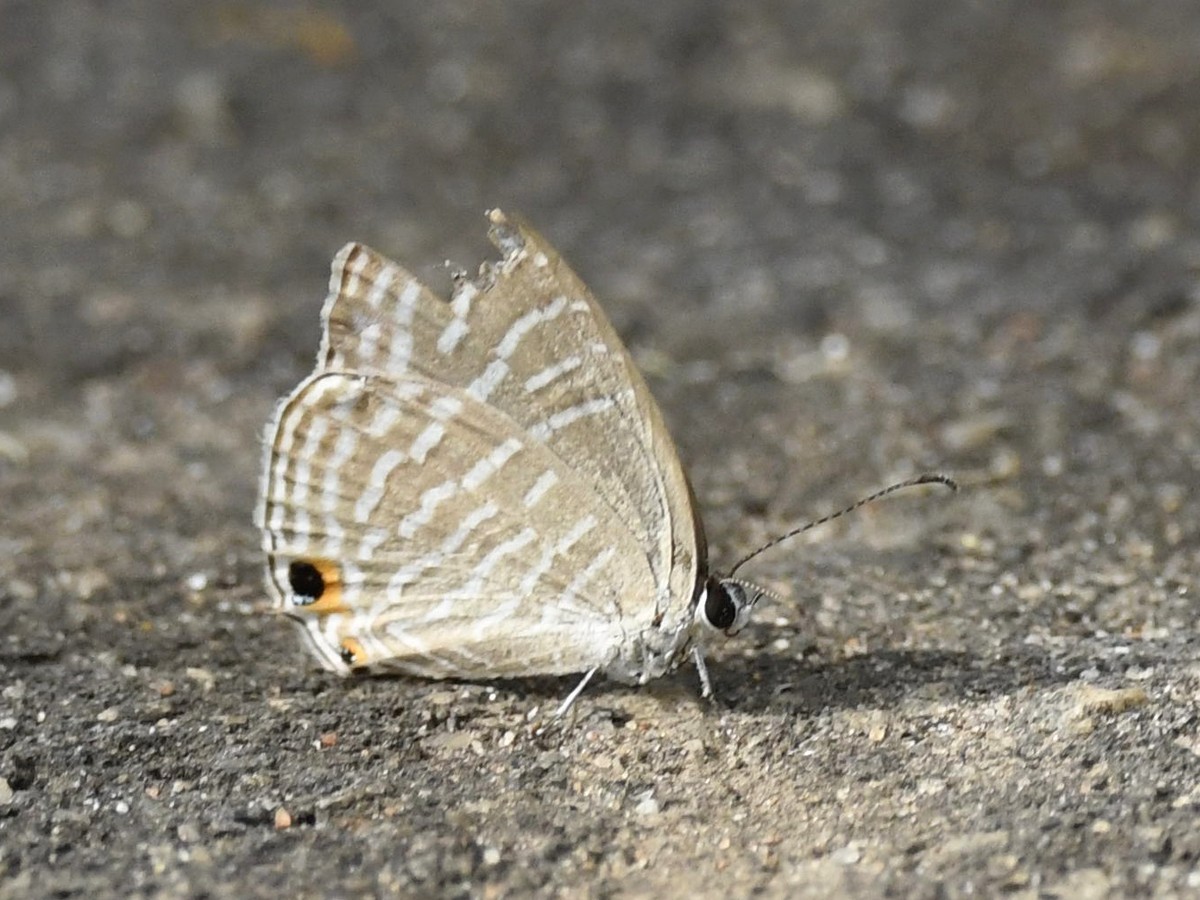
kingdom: Animalia
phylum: Arthropoda
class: Insecta
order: Lepidoptera
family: Lycaenidae
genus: Jamides
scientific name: Jamides celeno
